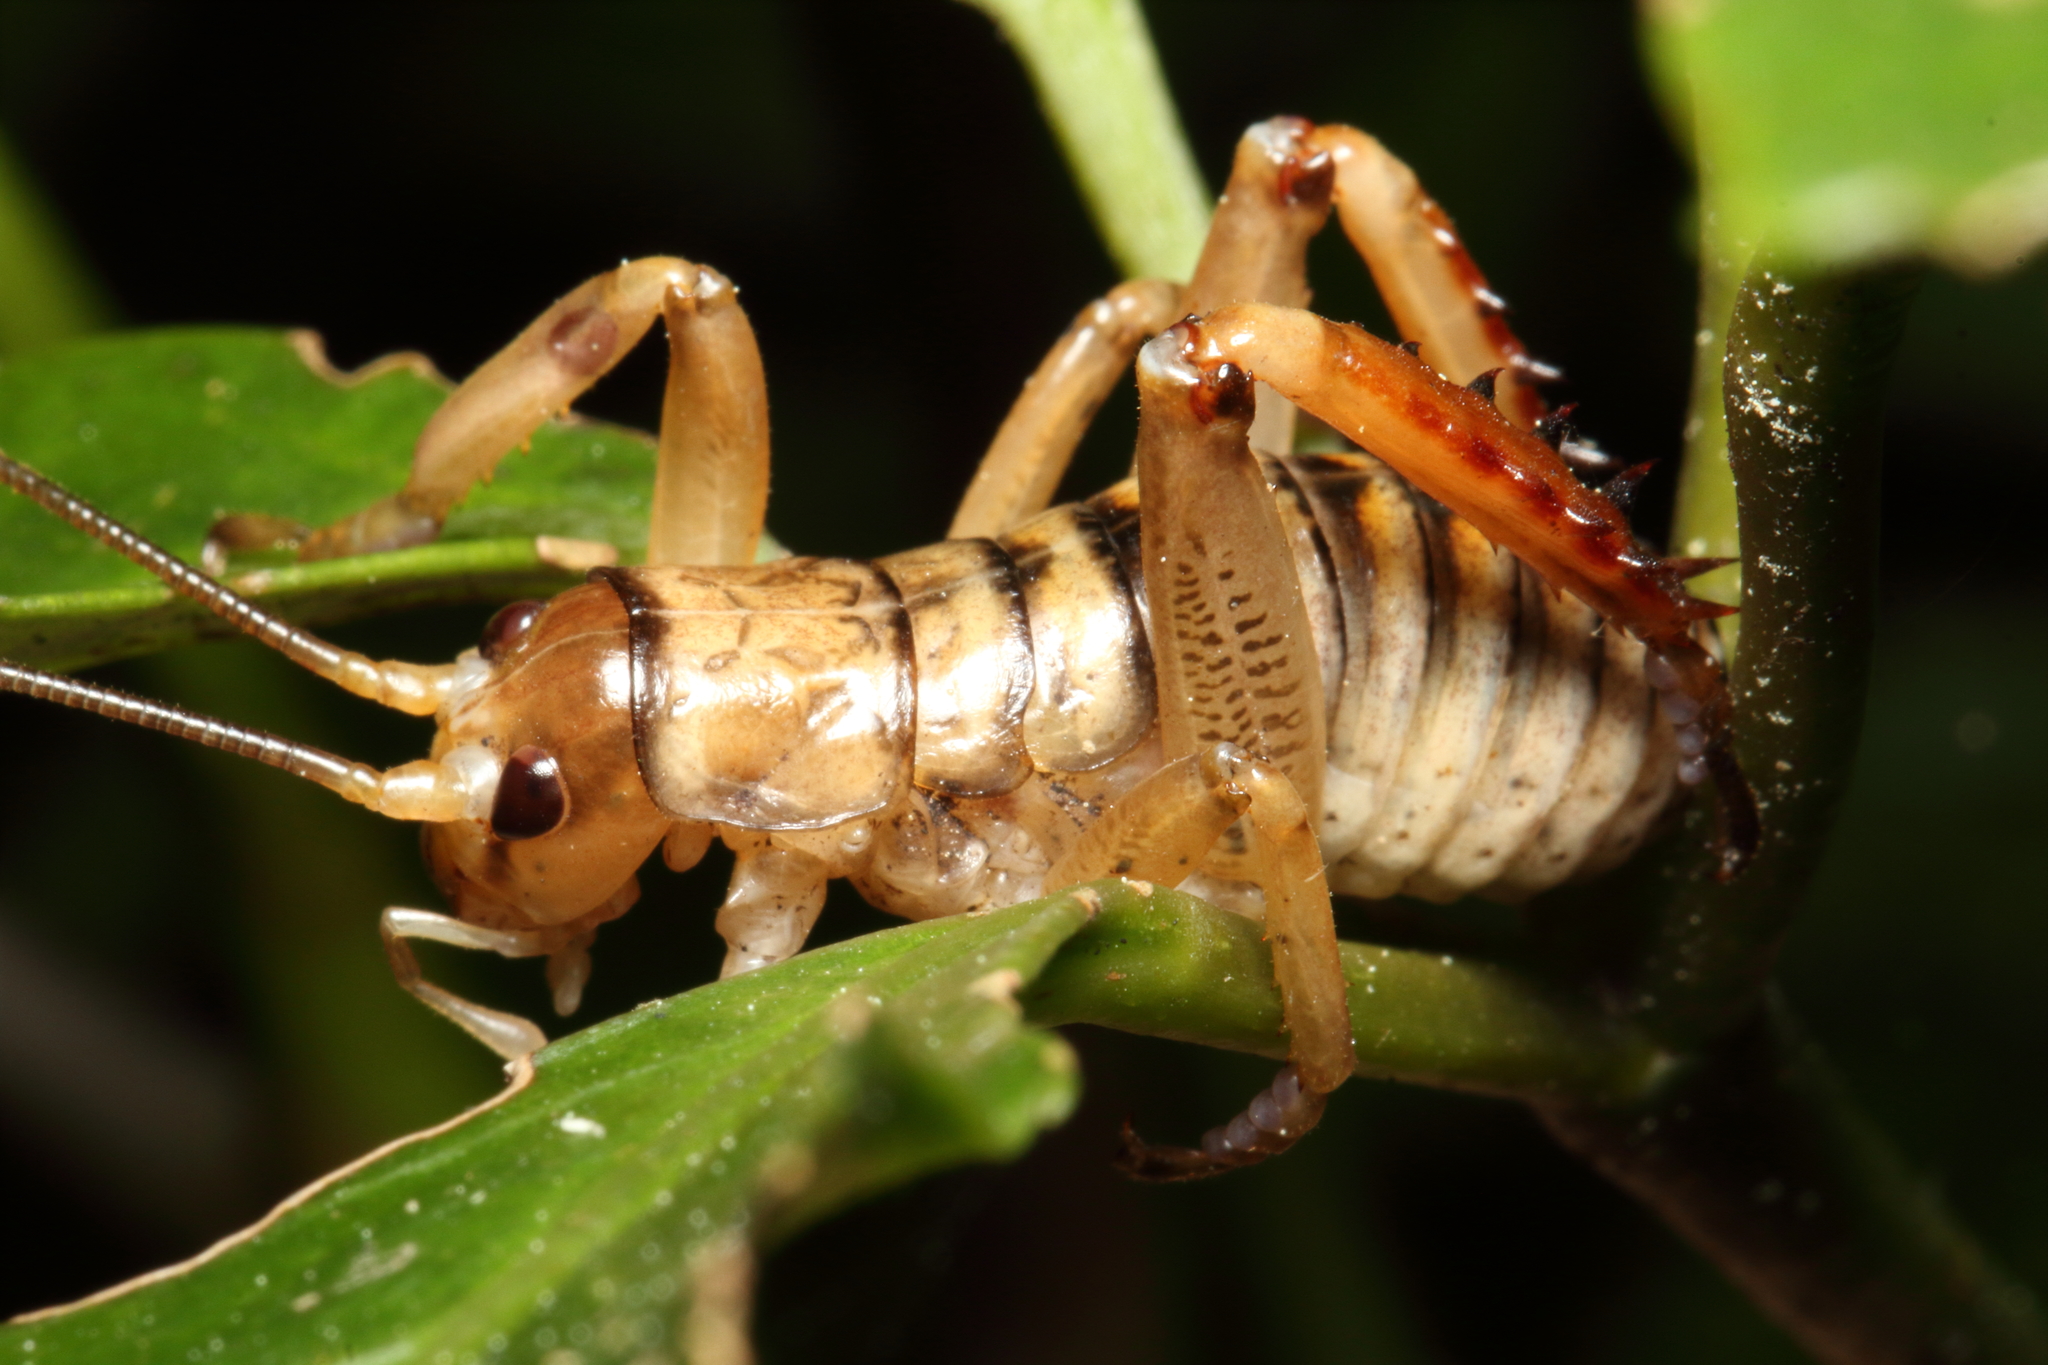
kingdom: Animalia
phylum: Arthropoda
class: Insecta
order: Orthoptera
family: Anostostomatidae
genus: Hemideina
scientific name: Hemideina femorata
